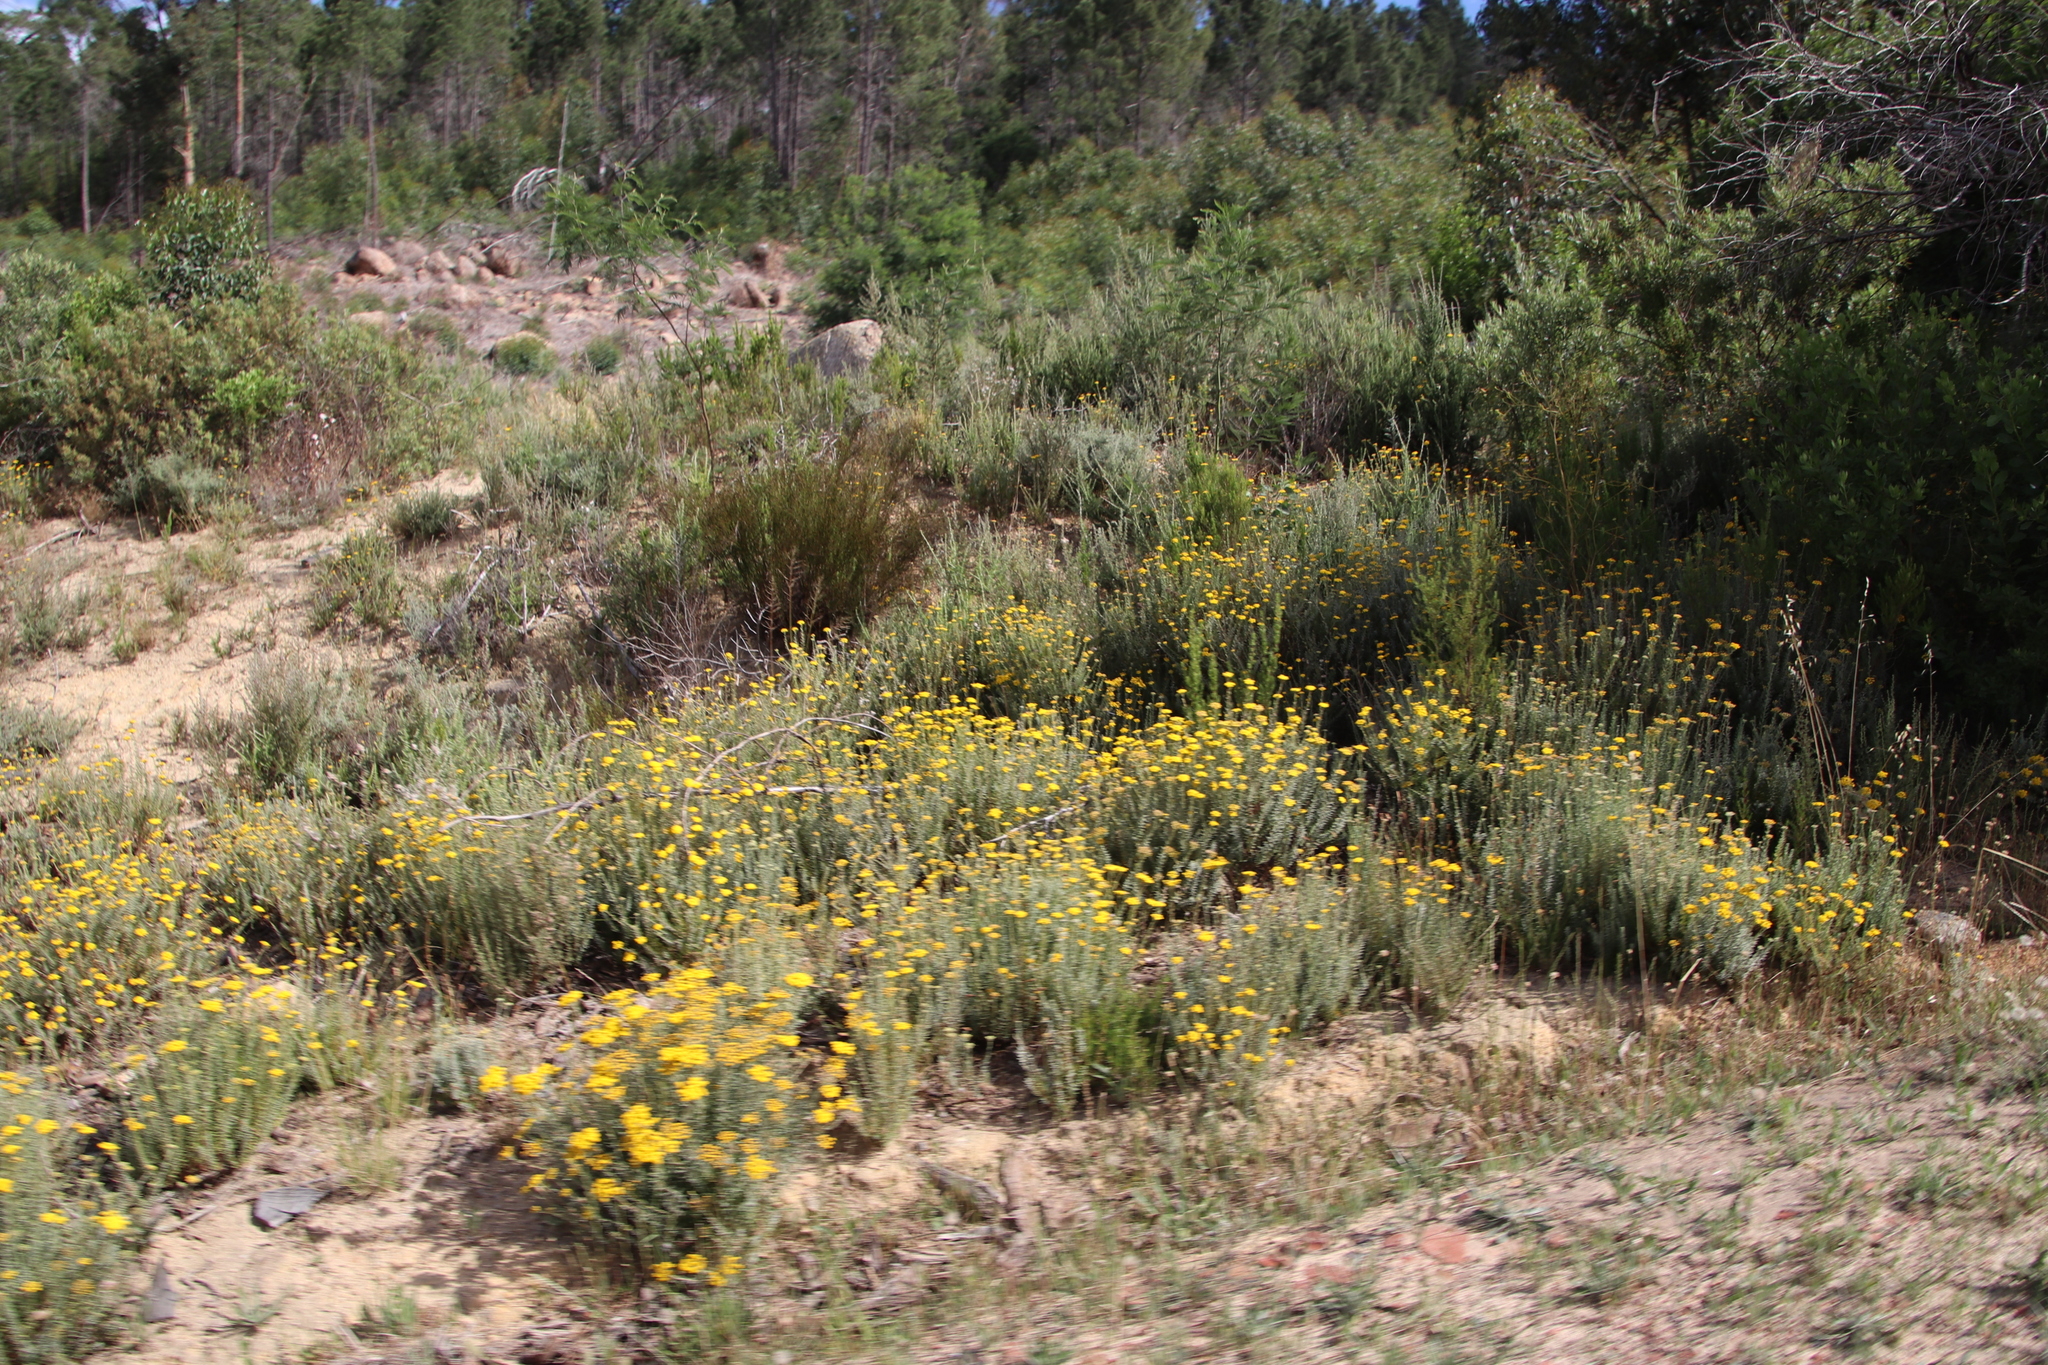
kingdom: Plantae
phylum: Tracheophyta
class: Magnoliopsida
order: Asterales
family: Asteraceae
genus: Athanasia
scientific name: Athanasia trifurcata
